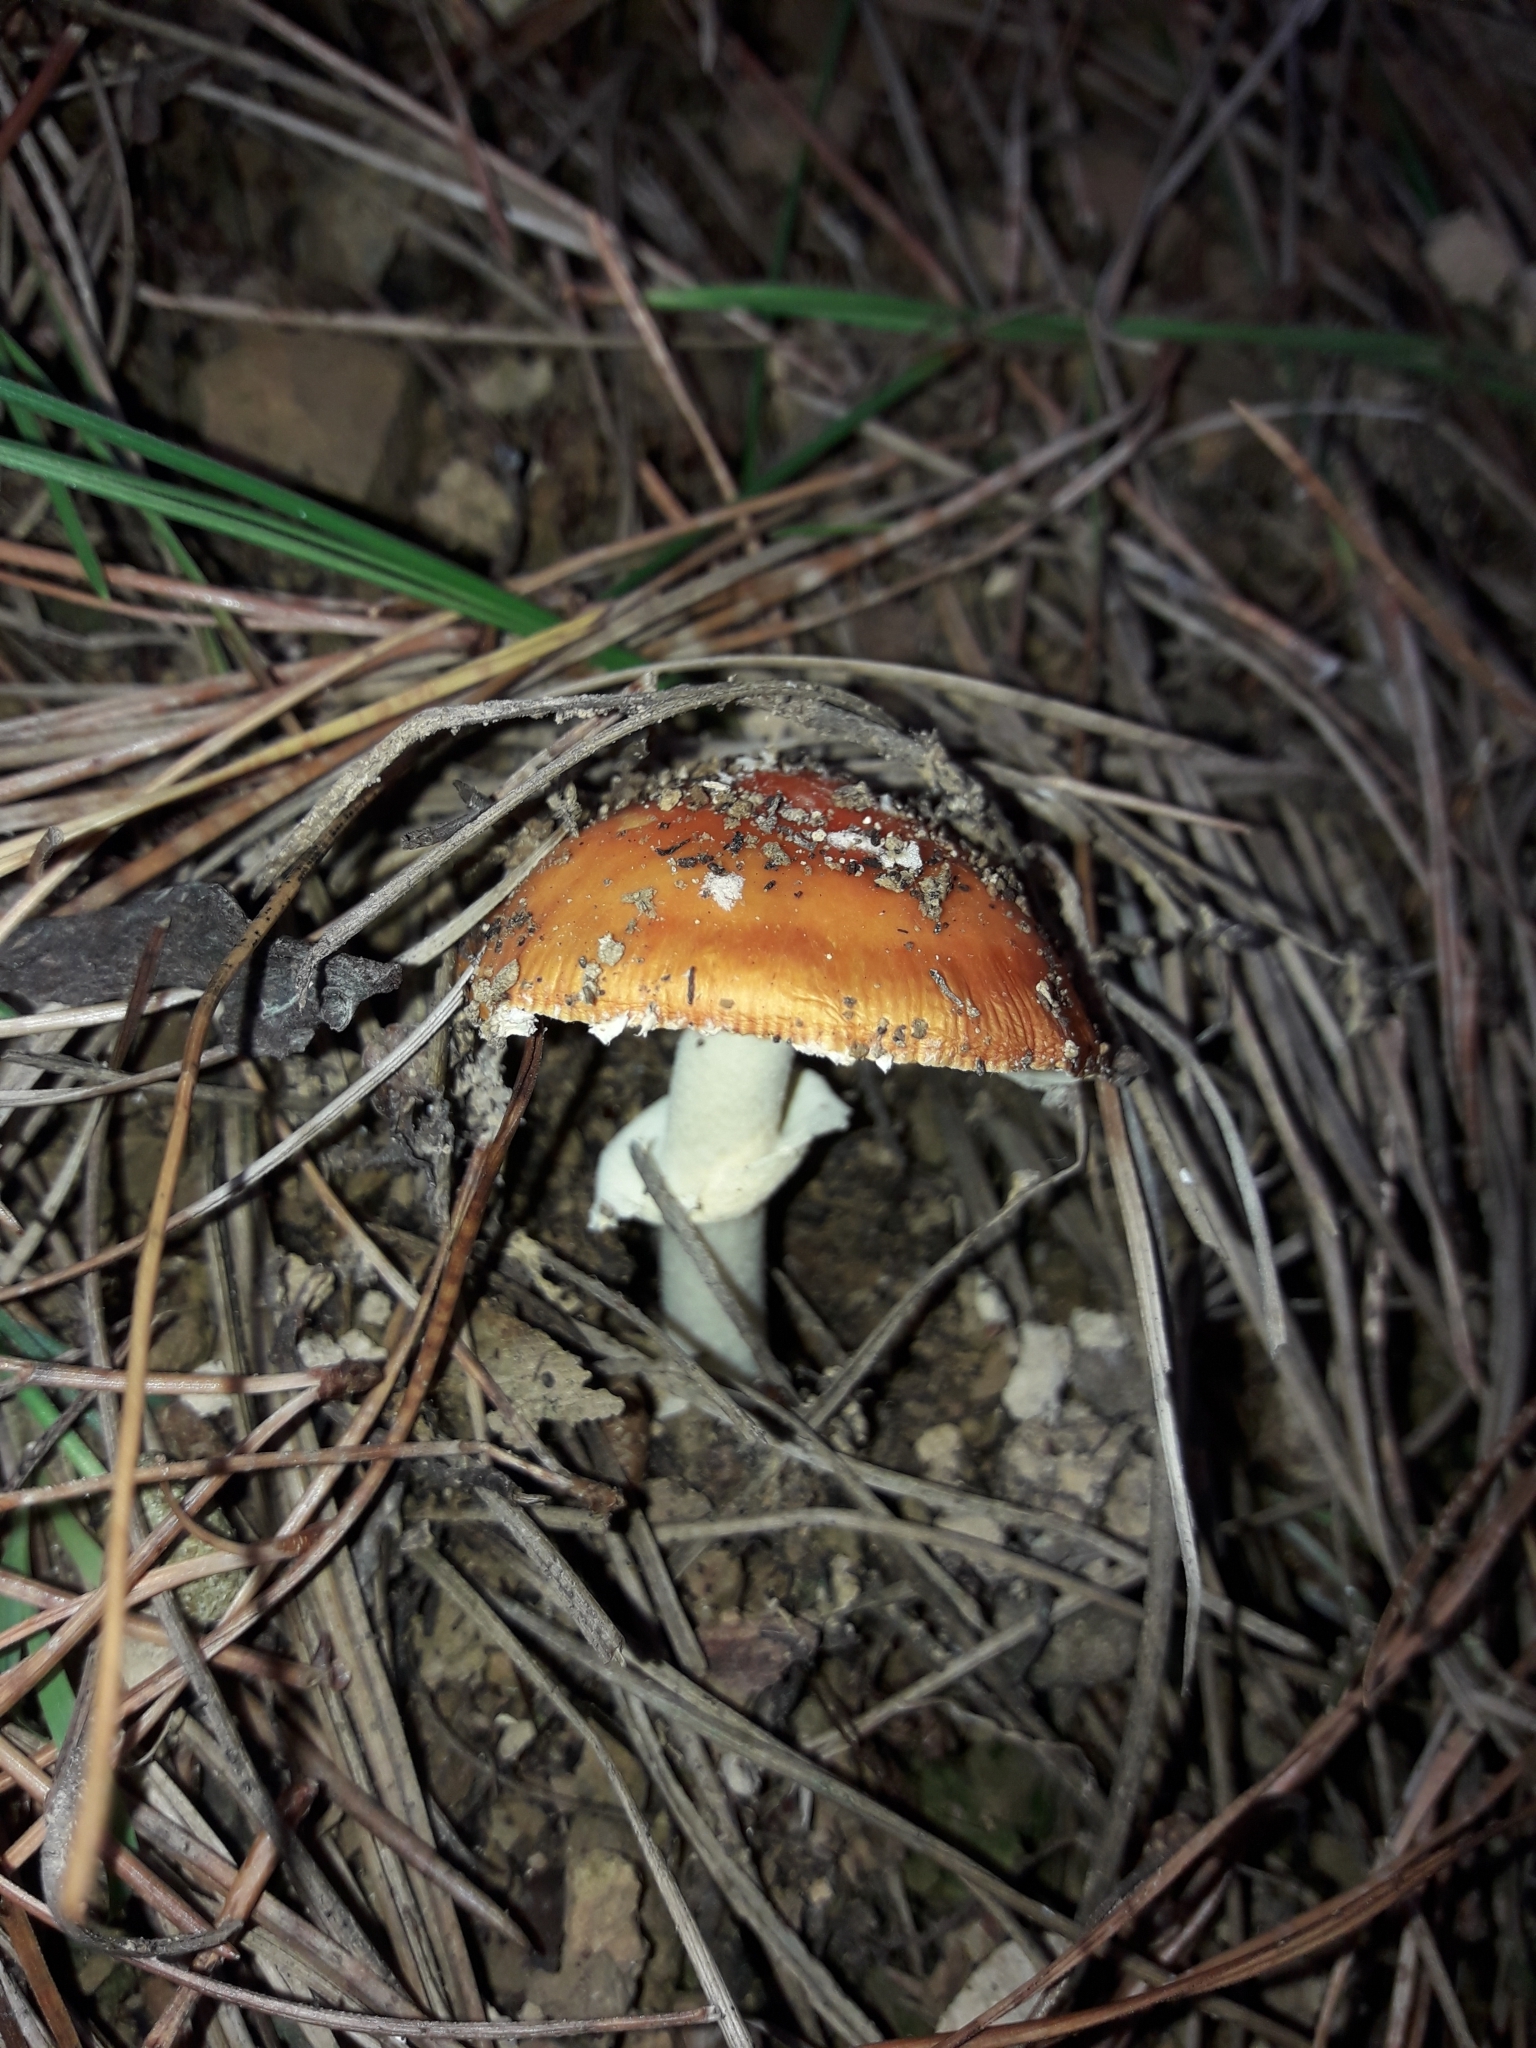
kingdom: Fungi
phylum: Basidiomycota
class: Agaricomycetes
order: Agaricales
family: Amanitaceae
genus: Amanita
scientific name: Amanita muscaria
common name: Fly agaric
